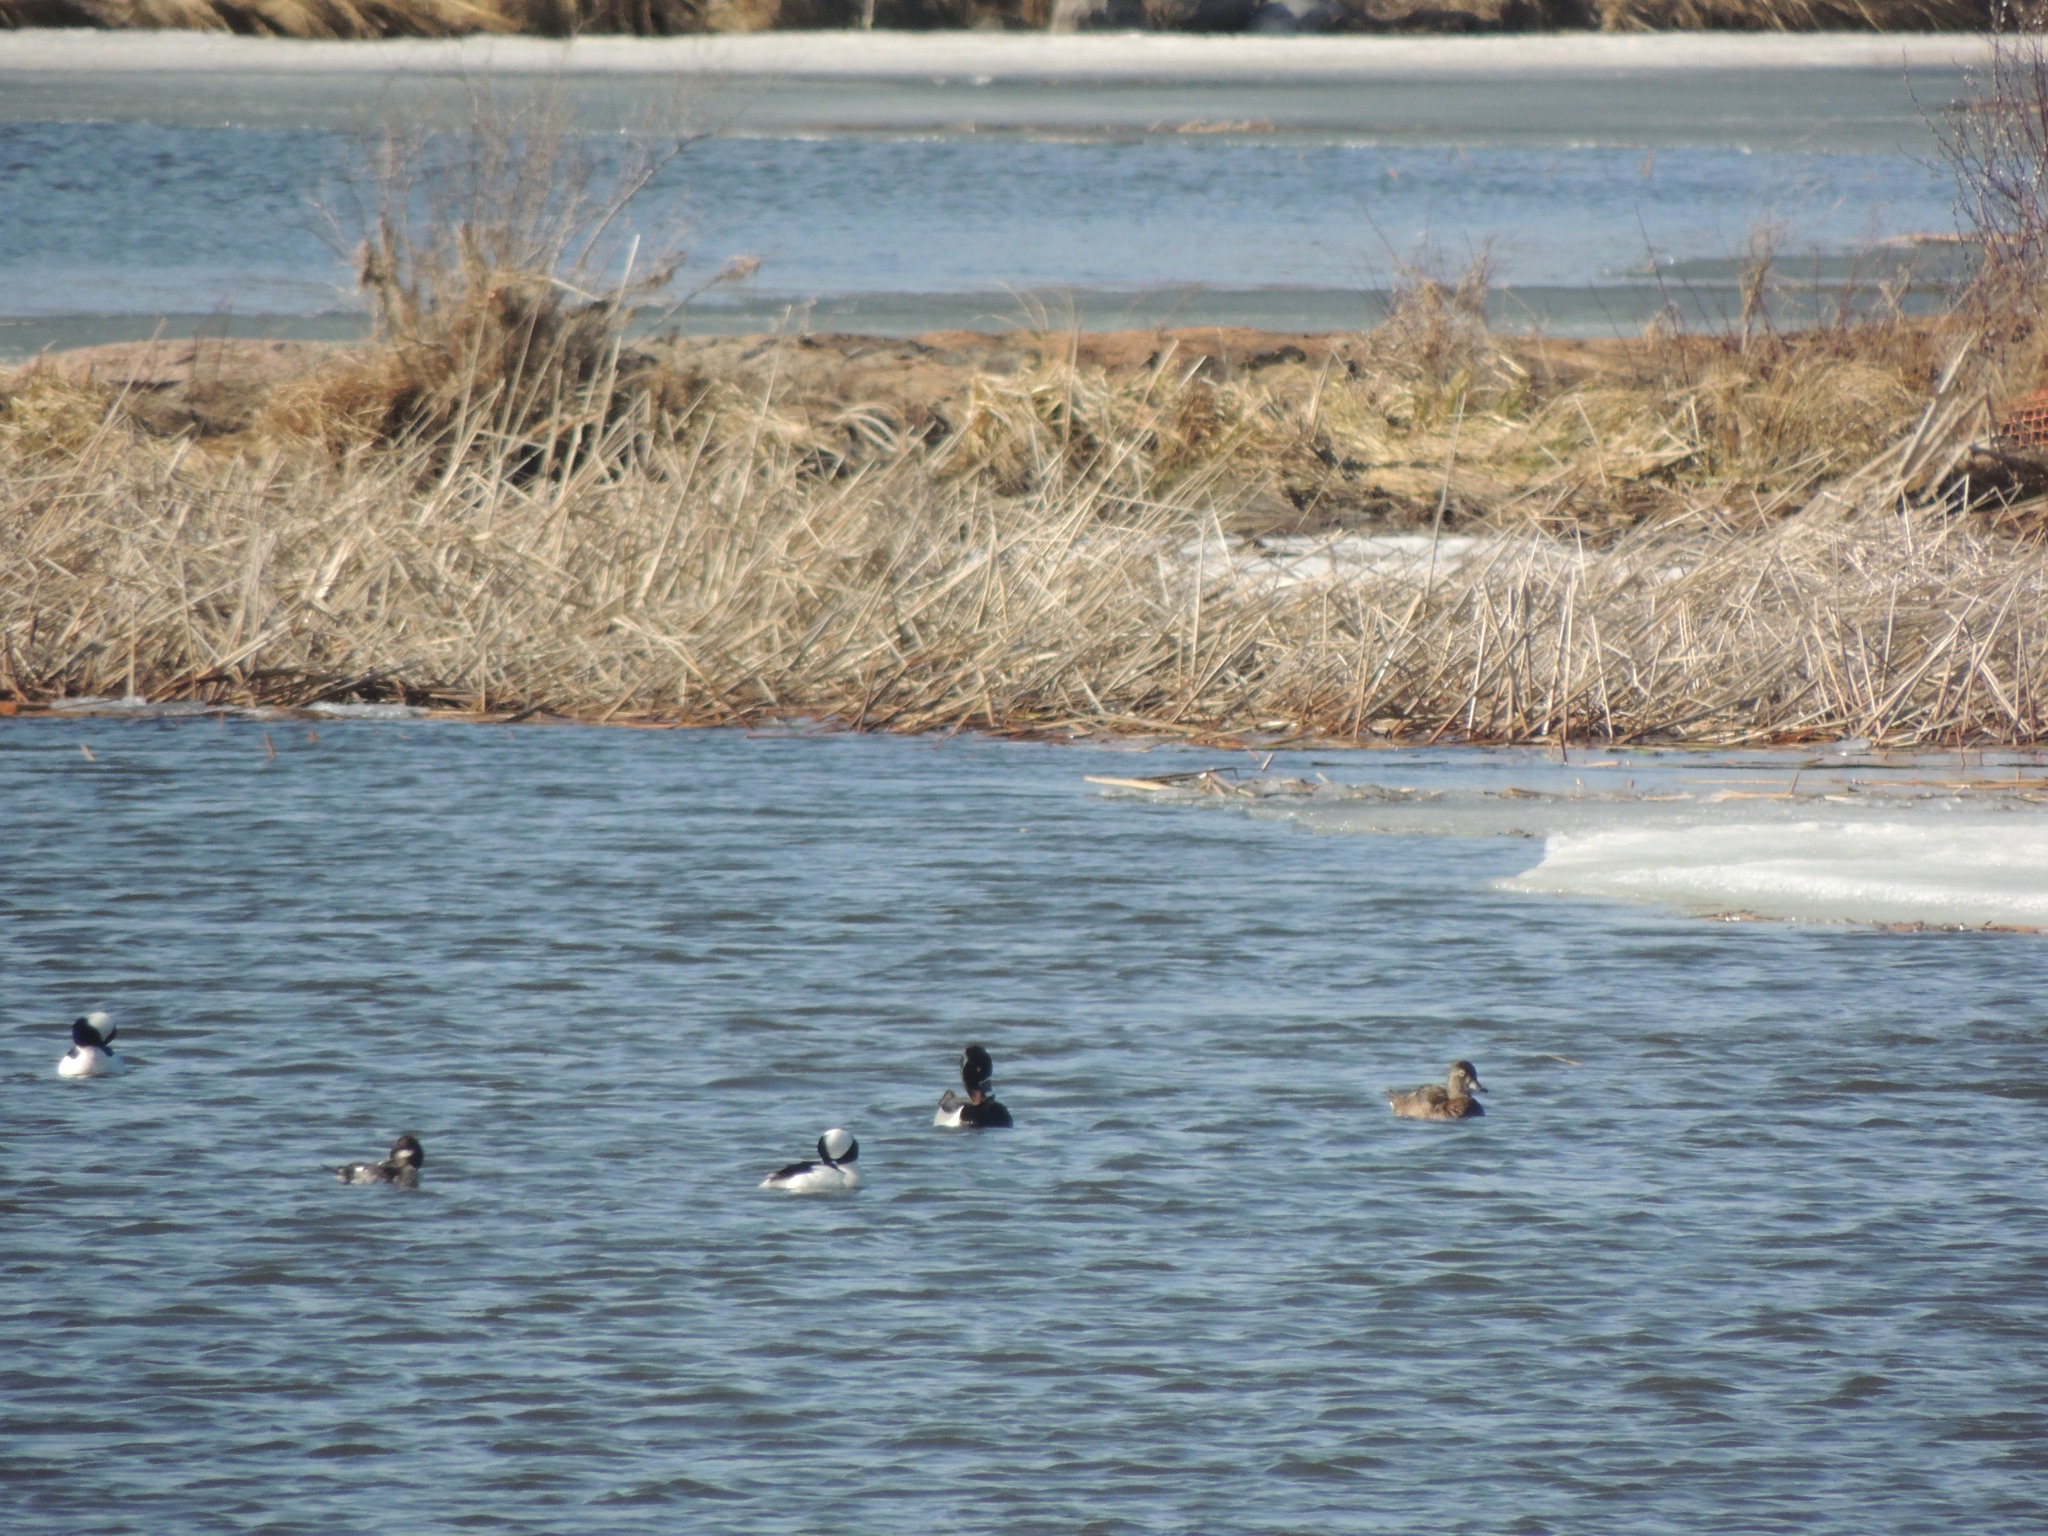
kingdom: Animalia
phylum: Chordata
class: Aves
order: Anseriformes
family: Anatidae
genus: Bucephala
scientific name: Bucephala albeola
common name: Bufflehead
